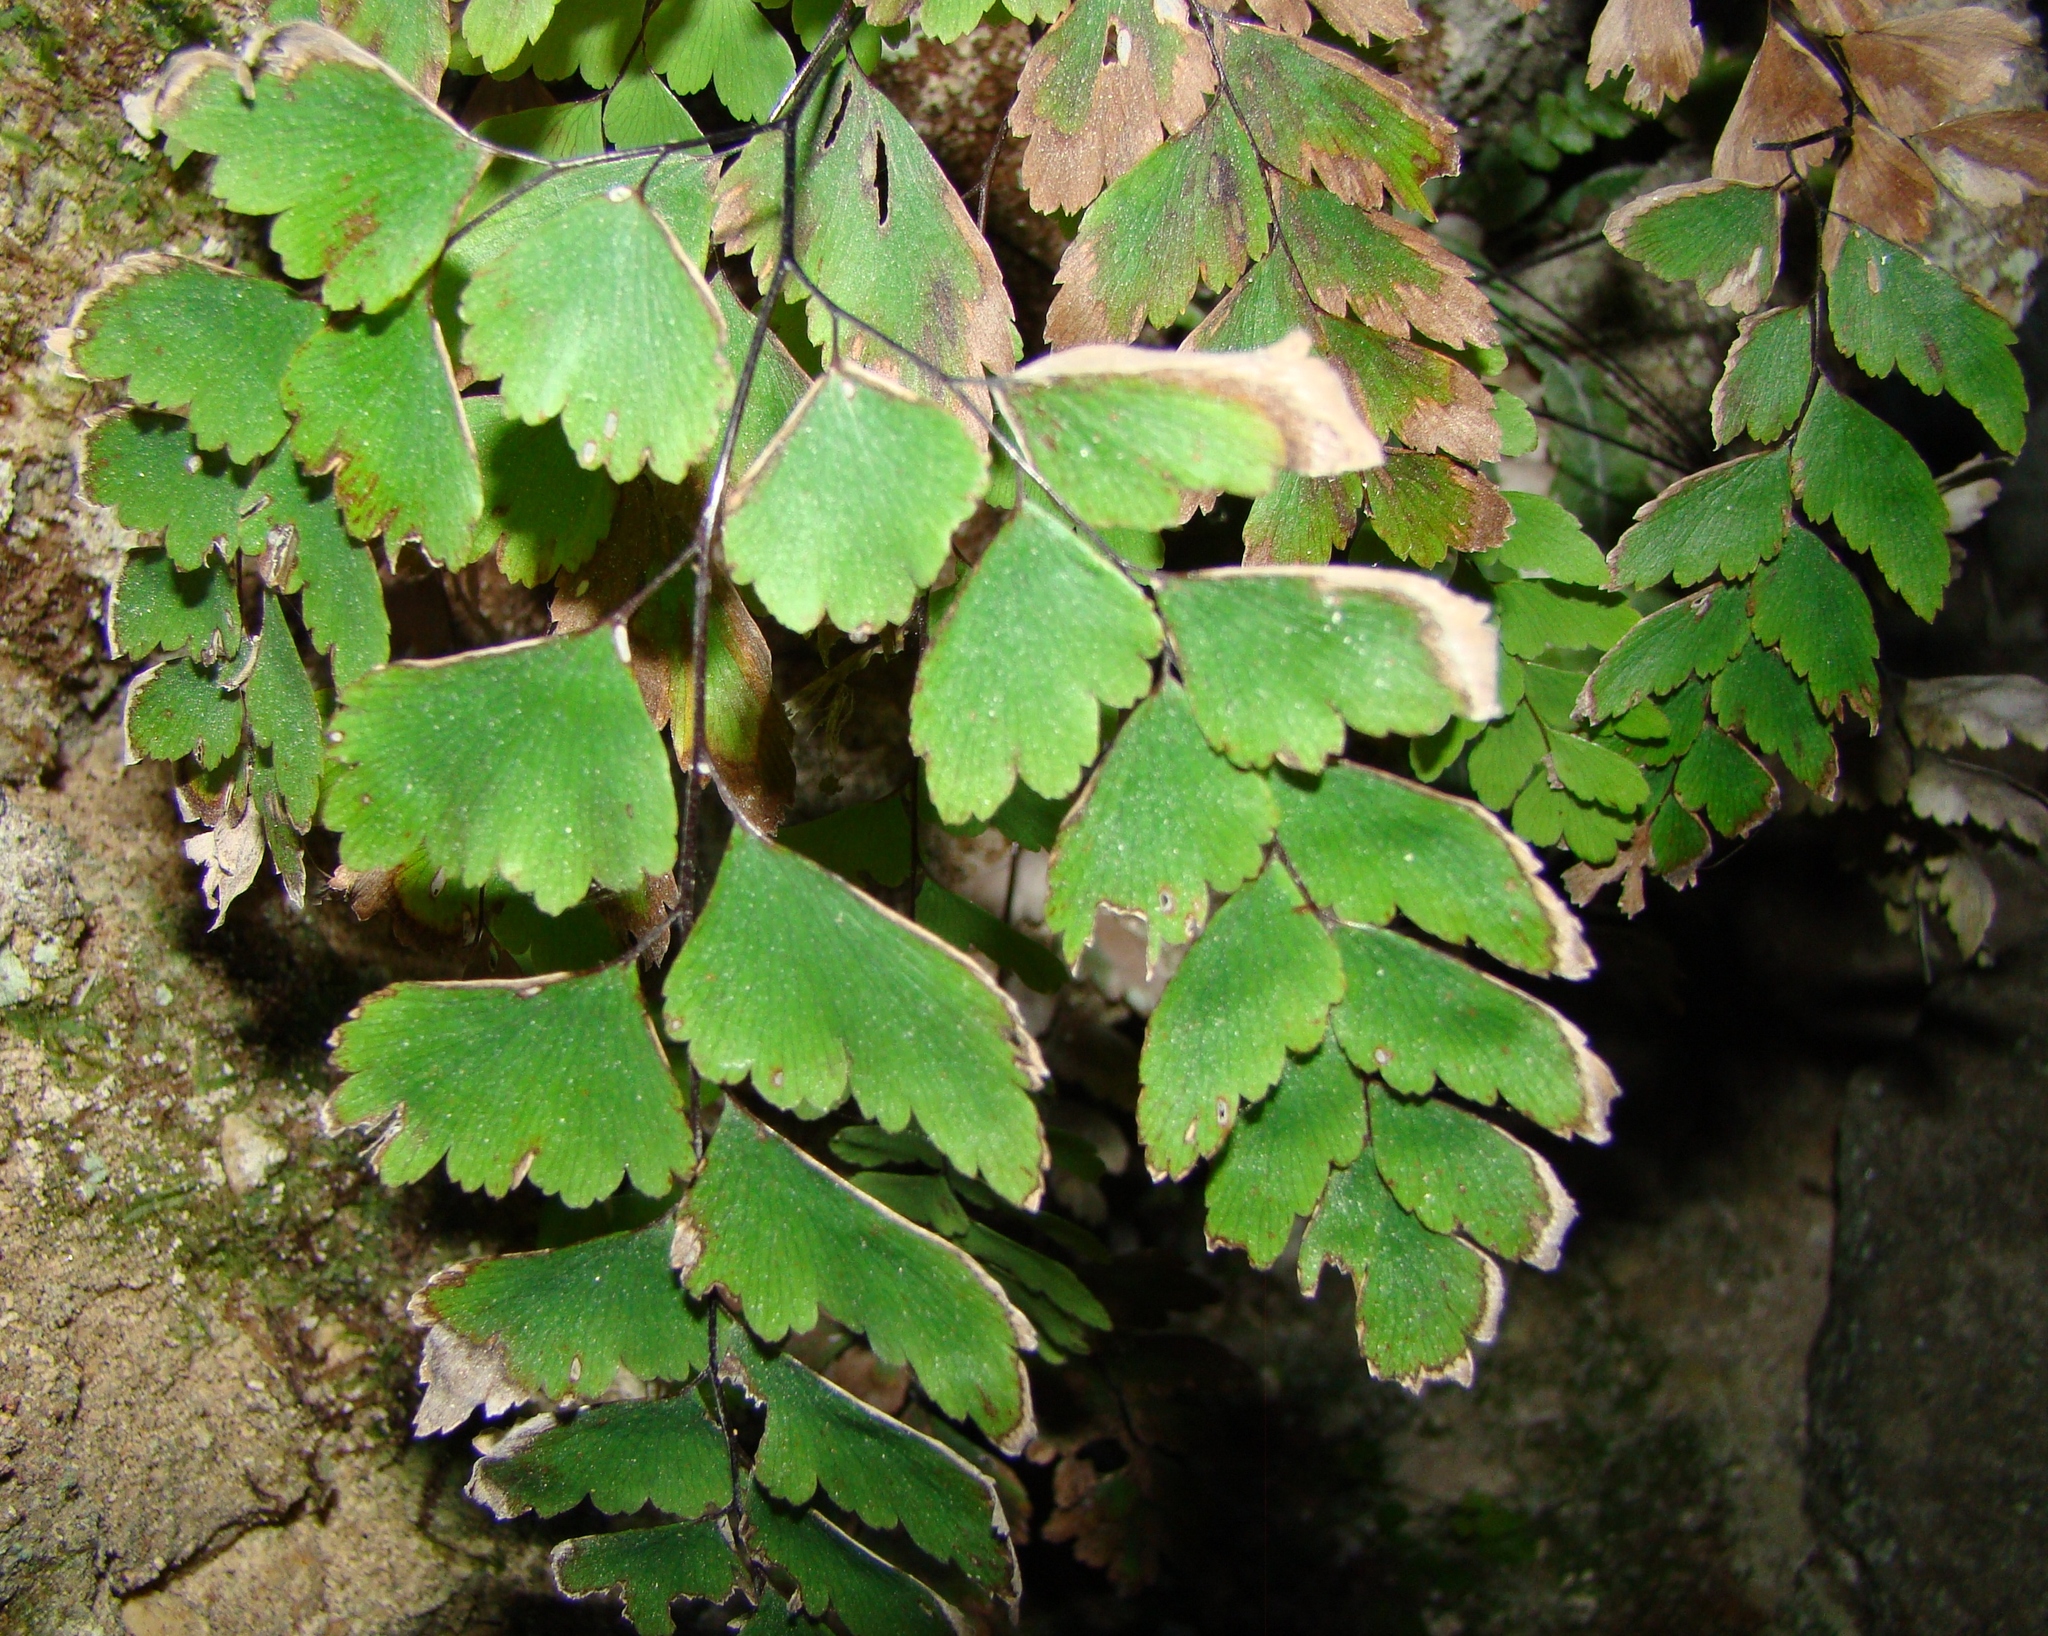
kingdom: Plantae
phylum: Tracheophyta
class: Polypodiopsida
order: Polypodiales
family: Pteridaceae
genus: Adiantum
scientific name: Adiantum cunninghamii
